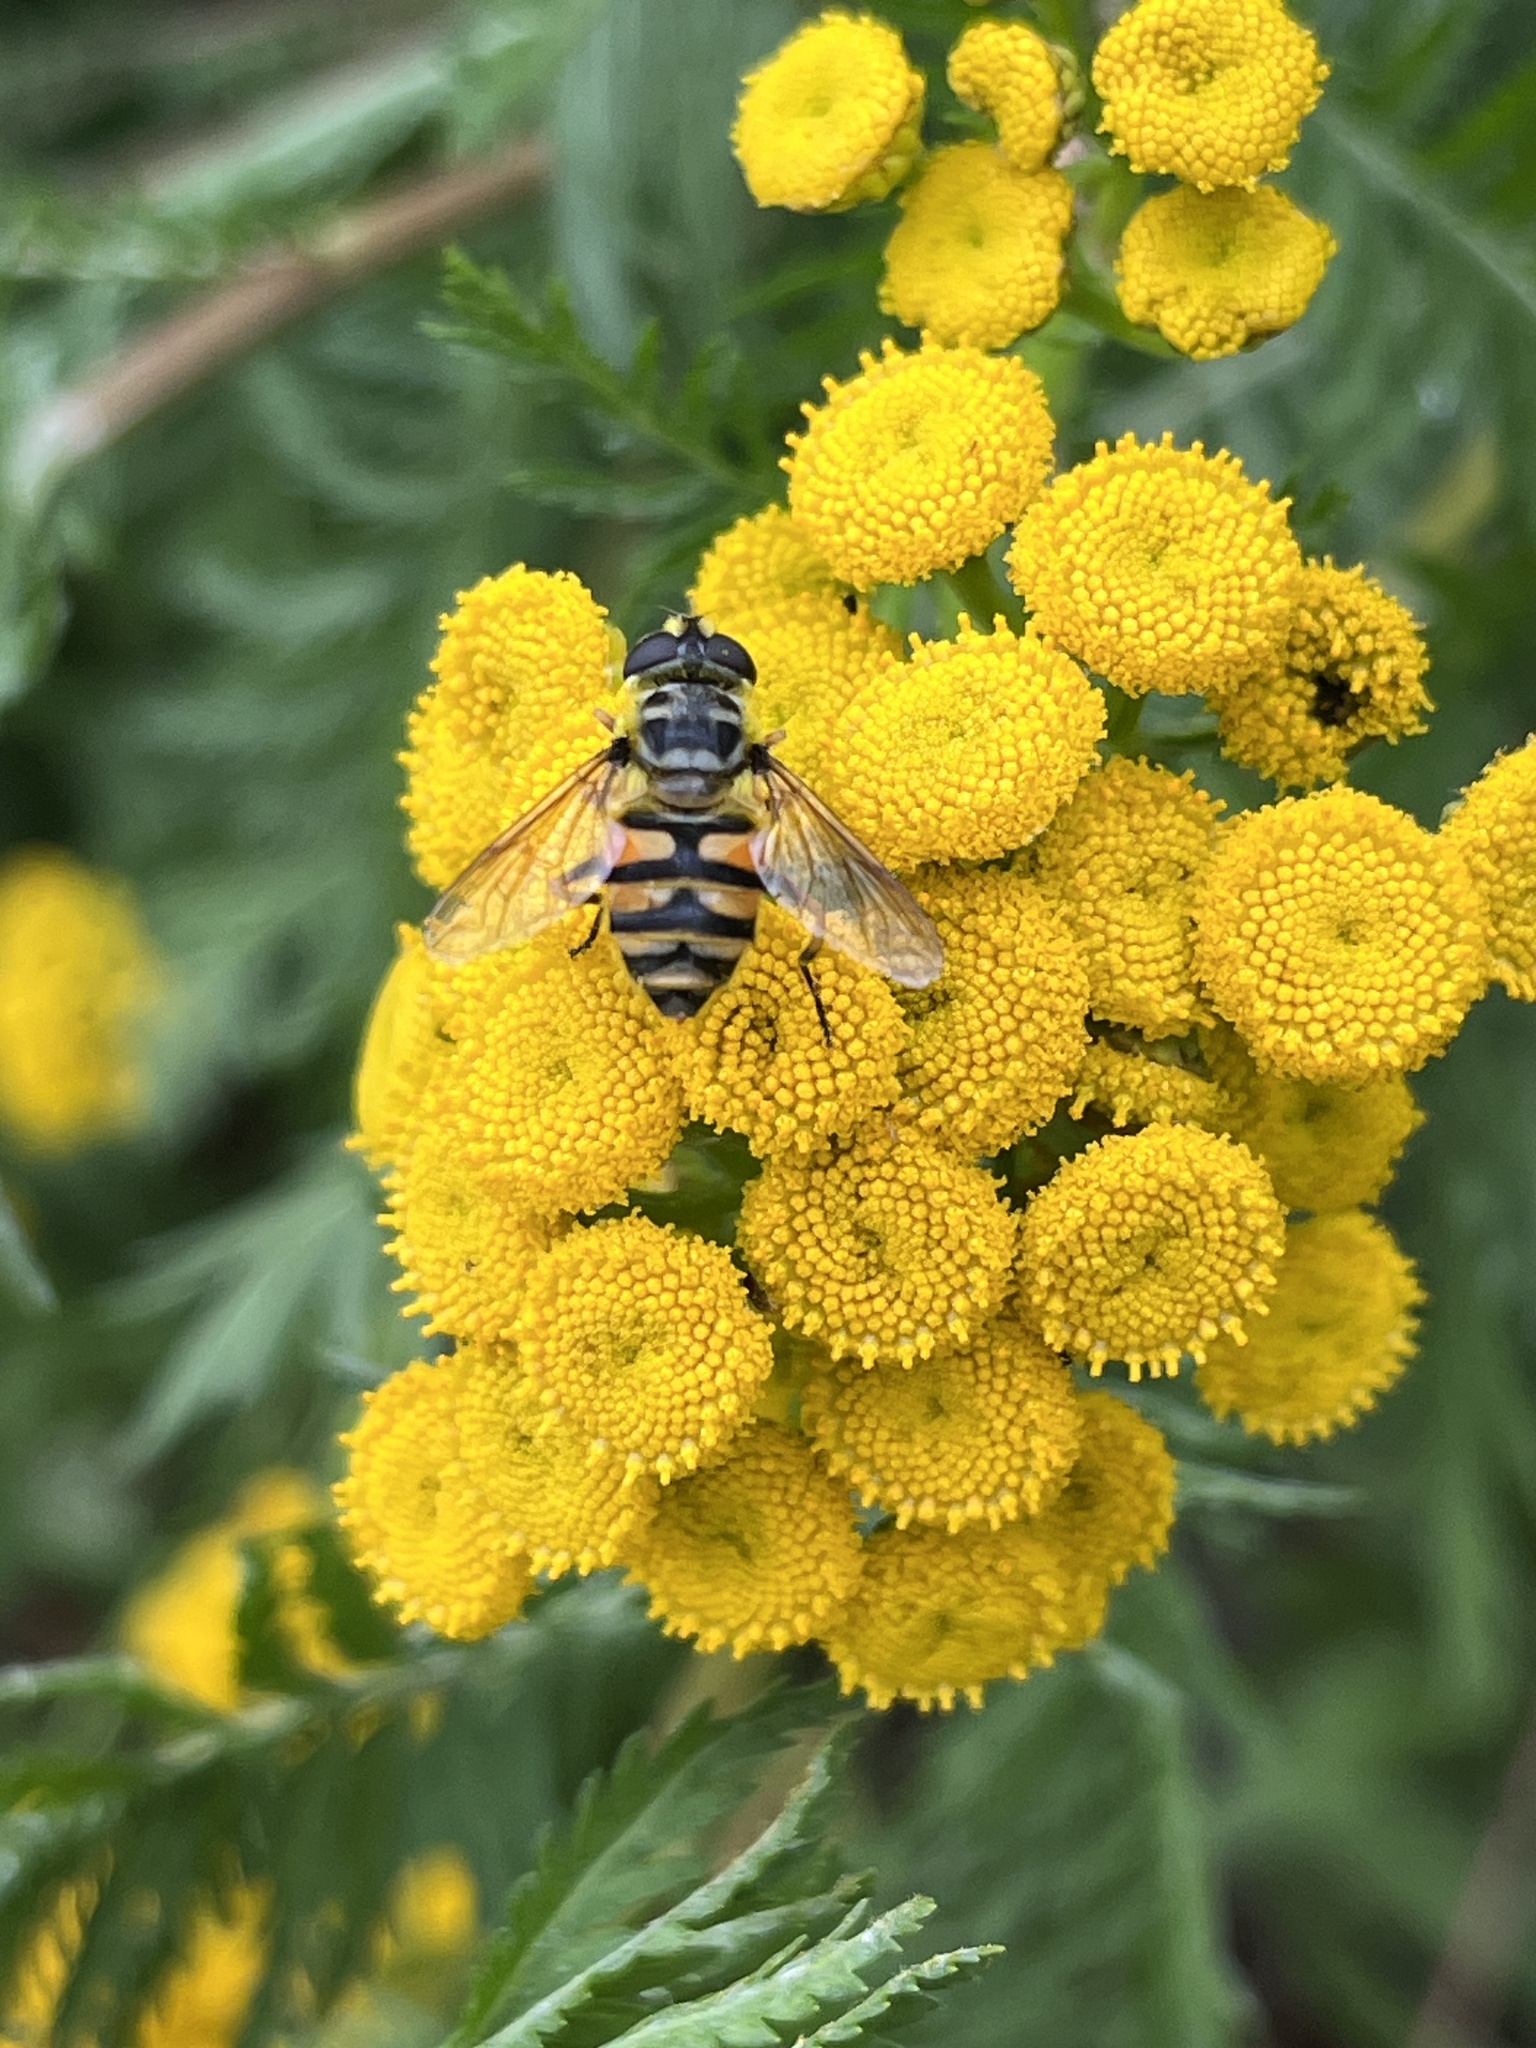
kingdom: Animalia
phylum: Arthropoda
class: Insecta
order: Diptera
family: Syrphidae
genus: Myathropa
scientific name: Myathropa florea
